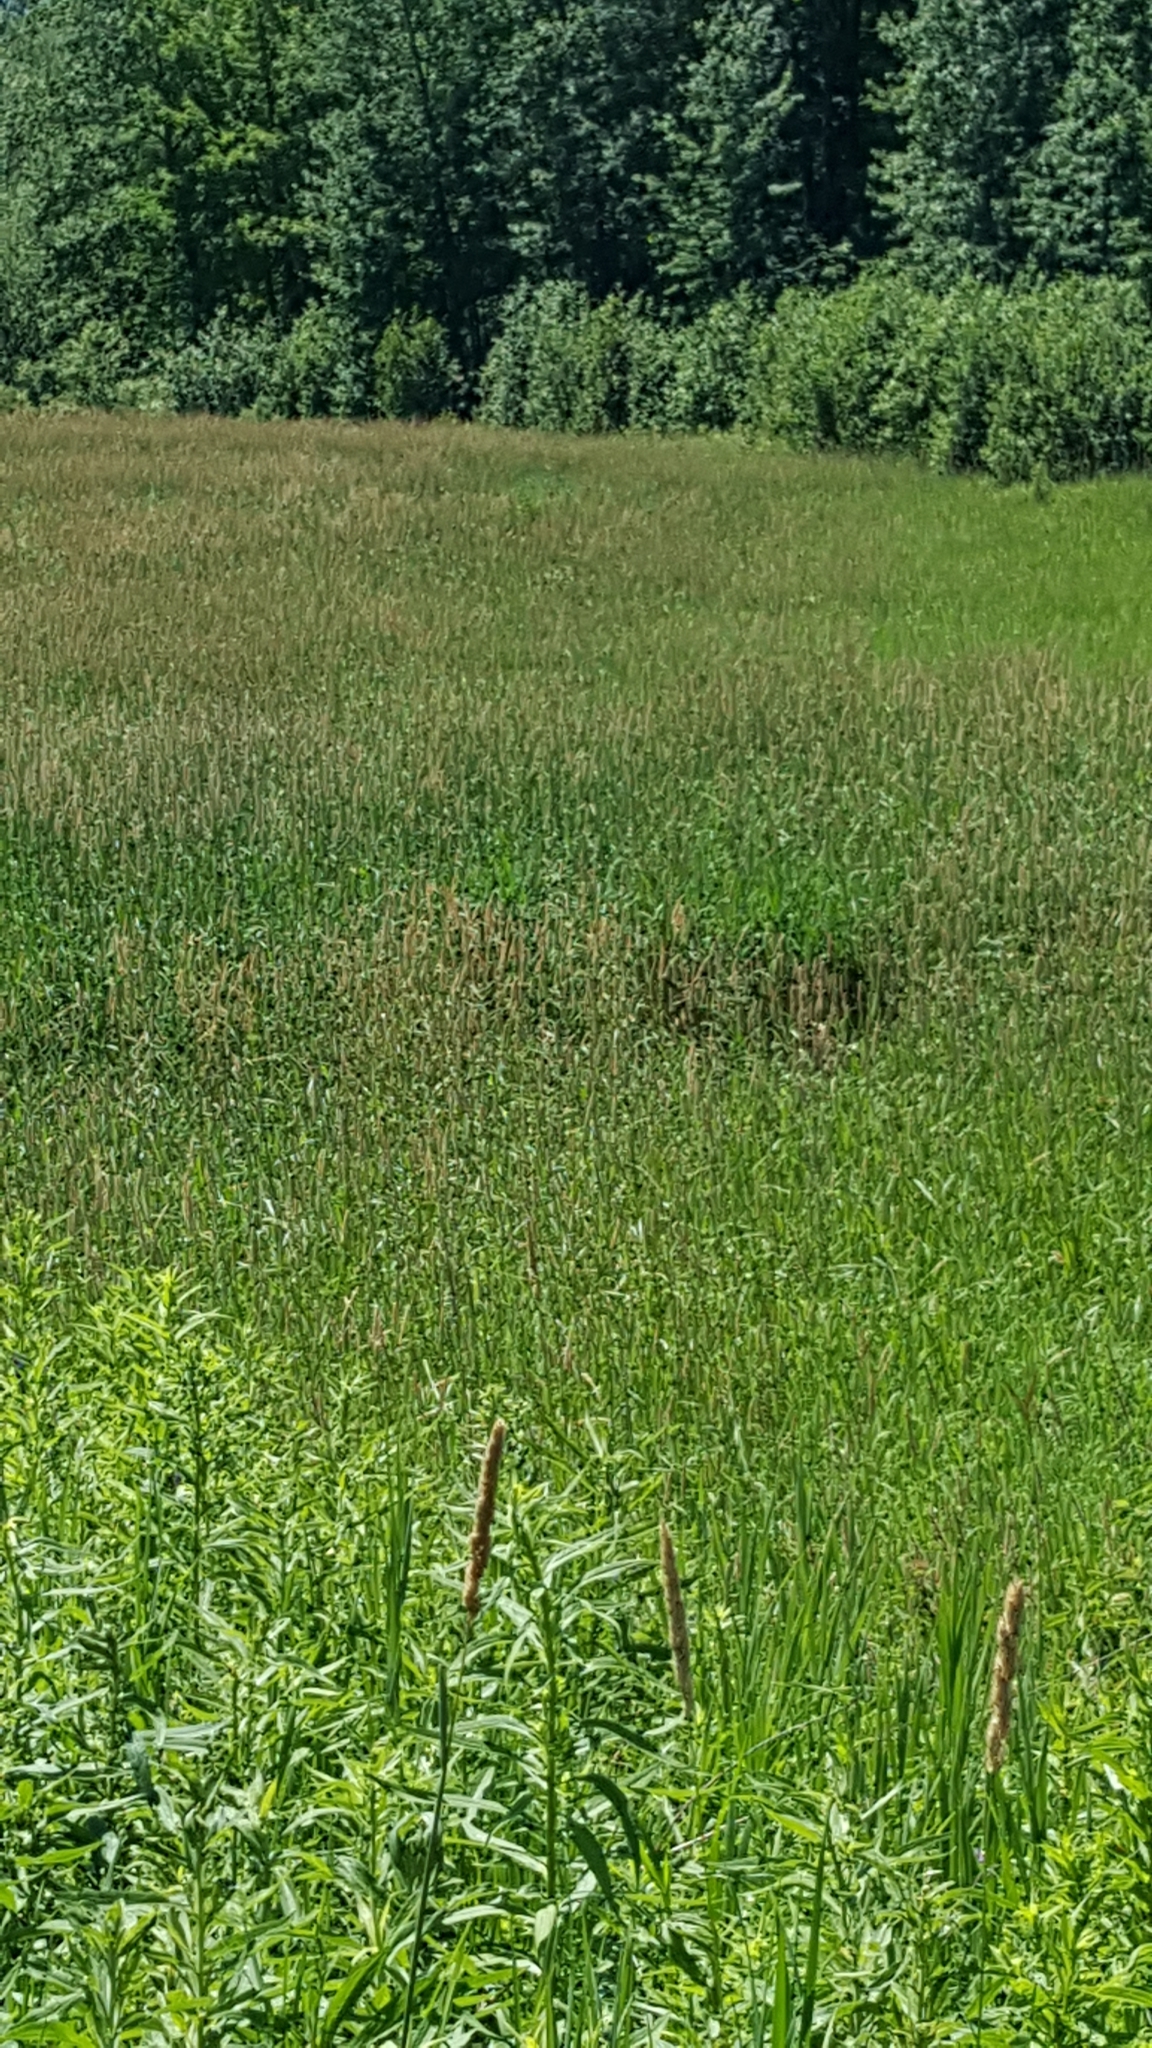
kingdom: Plantae
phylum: Tracheophyta
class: Liliopsida
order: Poales
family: Poaceae
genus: Phalaris
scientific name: Phalaris arundinacea
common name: Reed canary-grass
